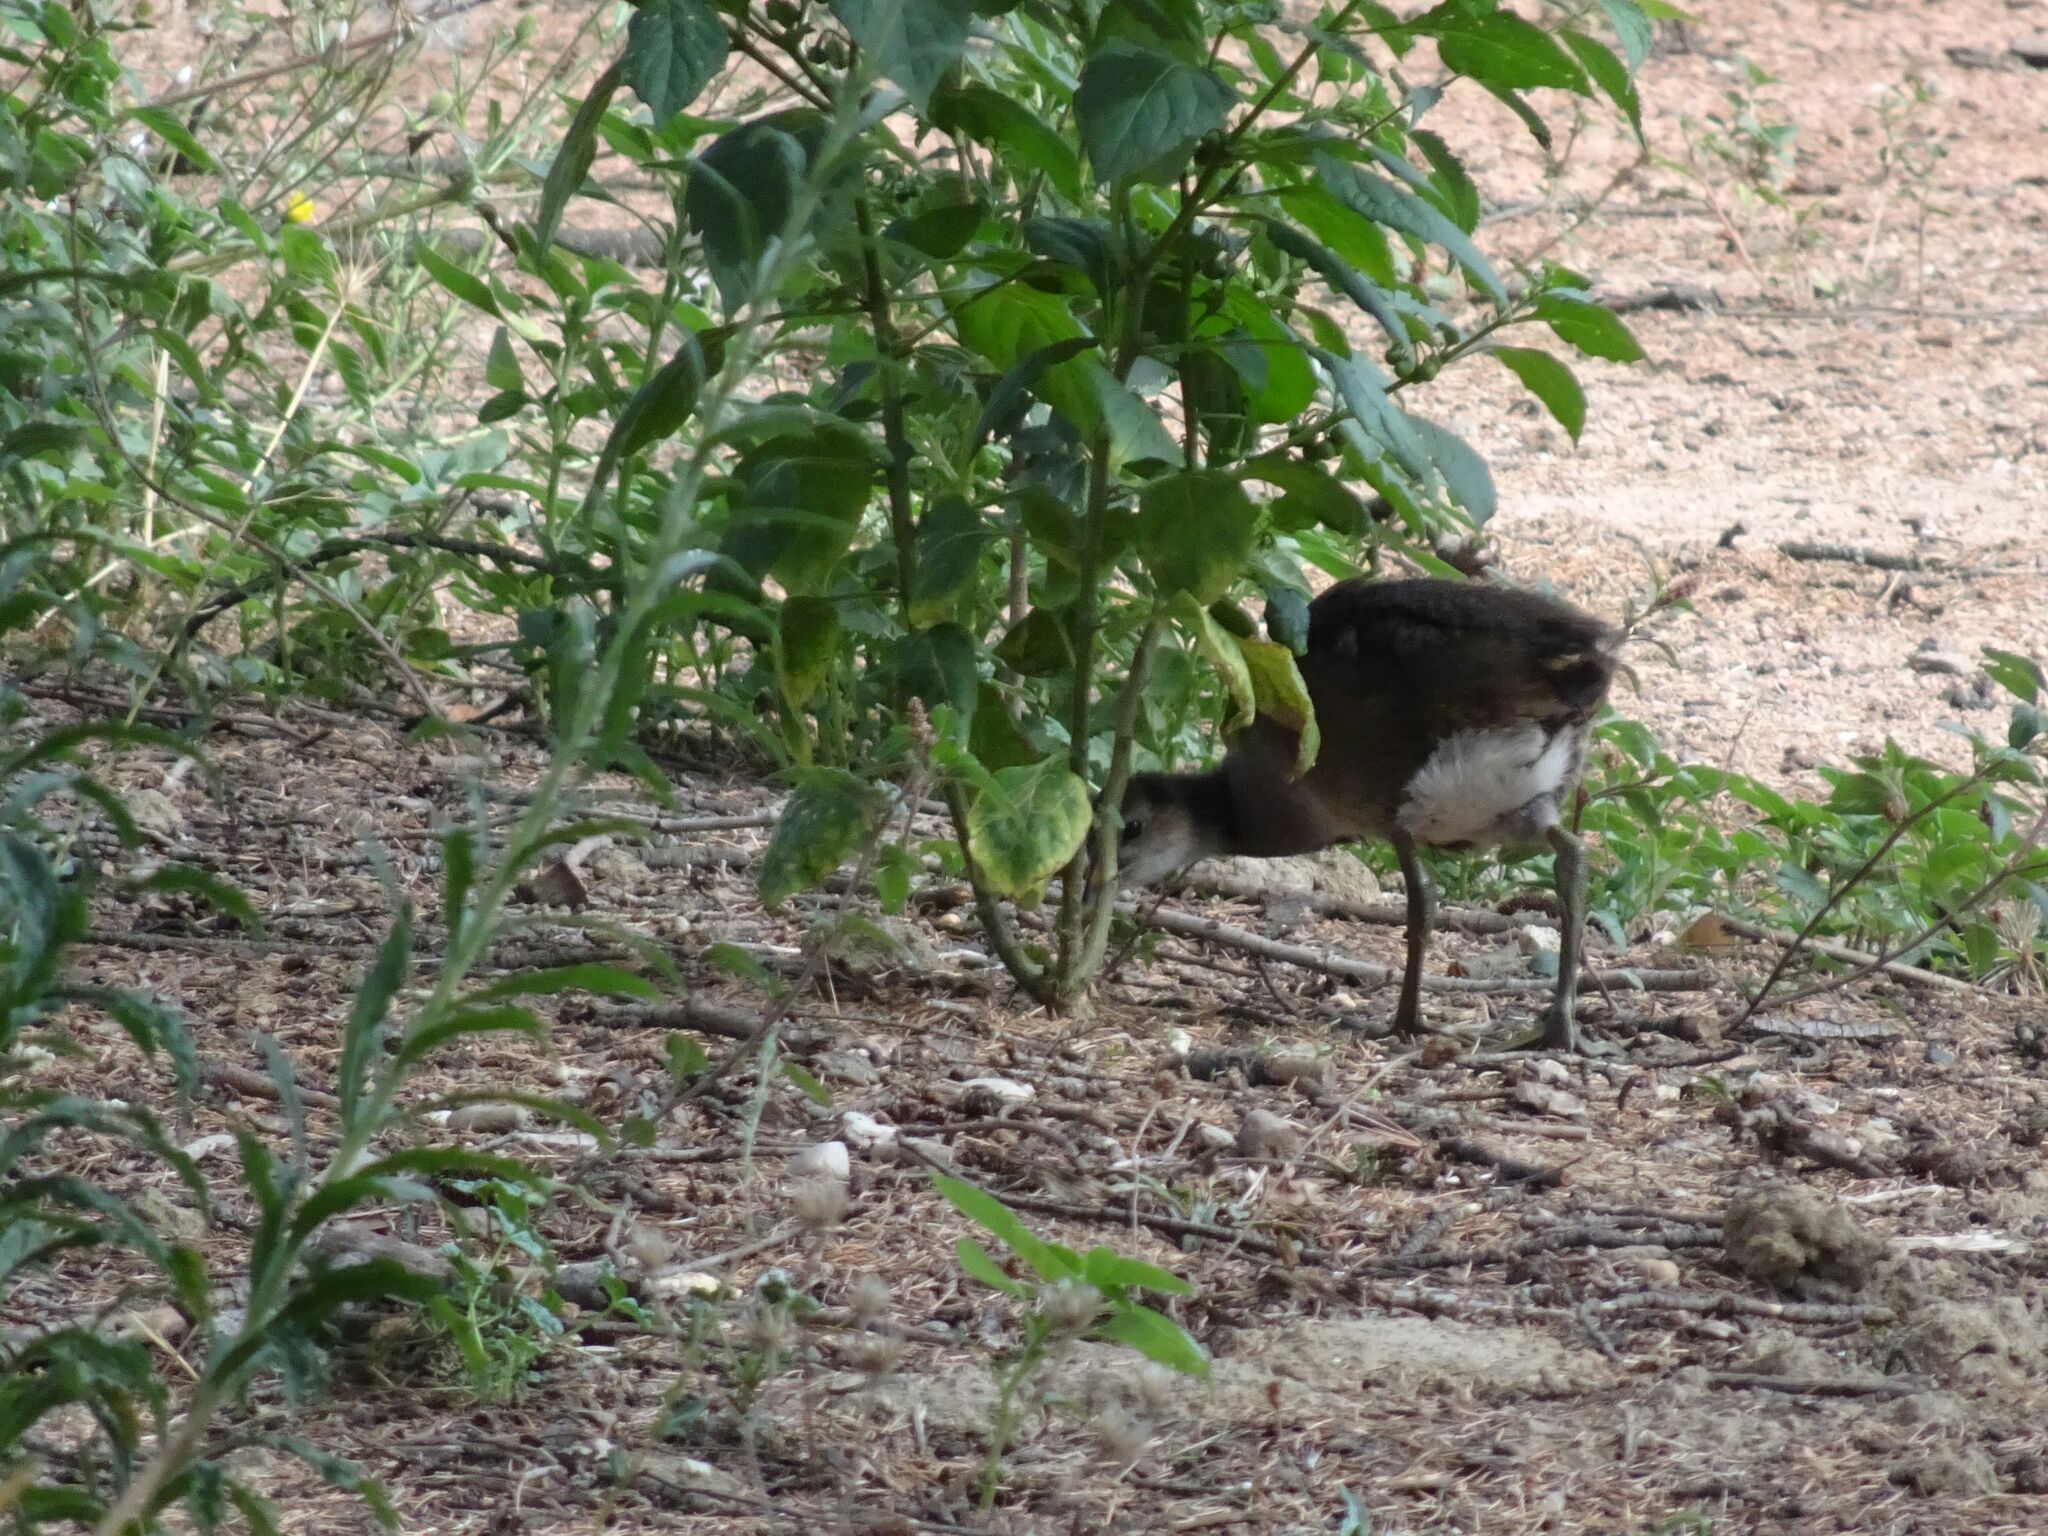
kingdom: Animalia
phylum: Chordata
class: Aves
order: Gruiformes
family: Rallidae
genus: Gallinula
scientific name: Gallinula chloropus
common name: Common moorhen
